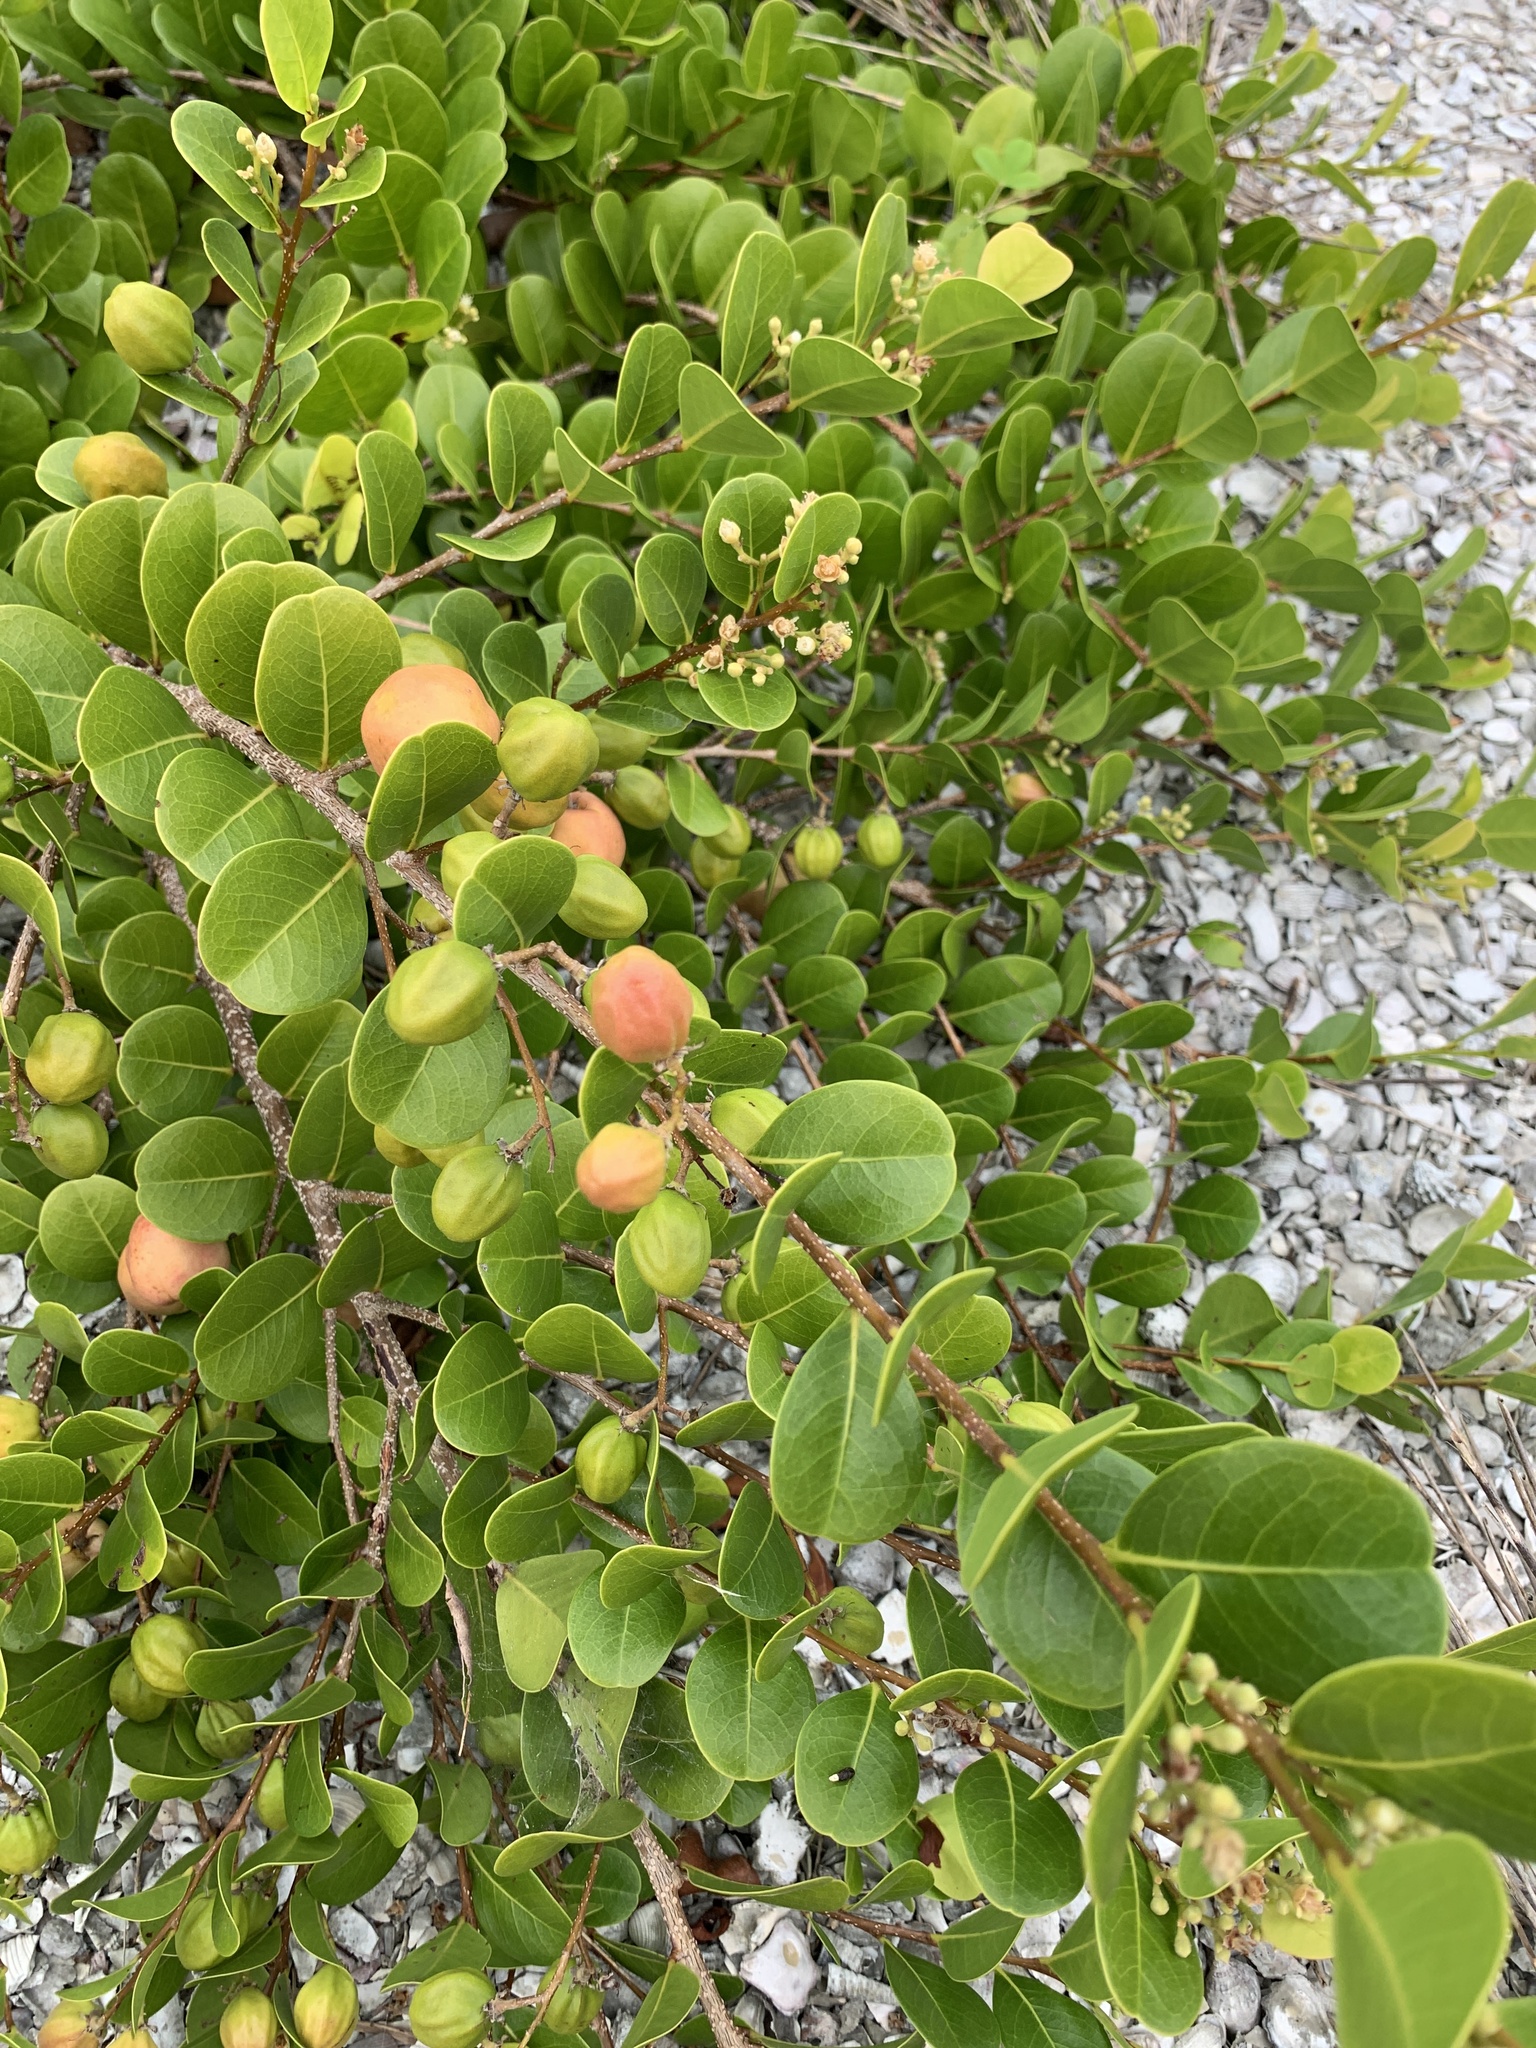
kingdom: Plantae
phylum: Tracheophyta
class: Magnoliopsida
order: Malpighiales
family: Chrysobalanaceae
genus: Chrysobalanus
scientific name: Chrysobalanus icaco
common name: Coco plum
